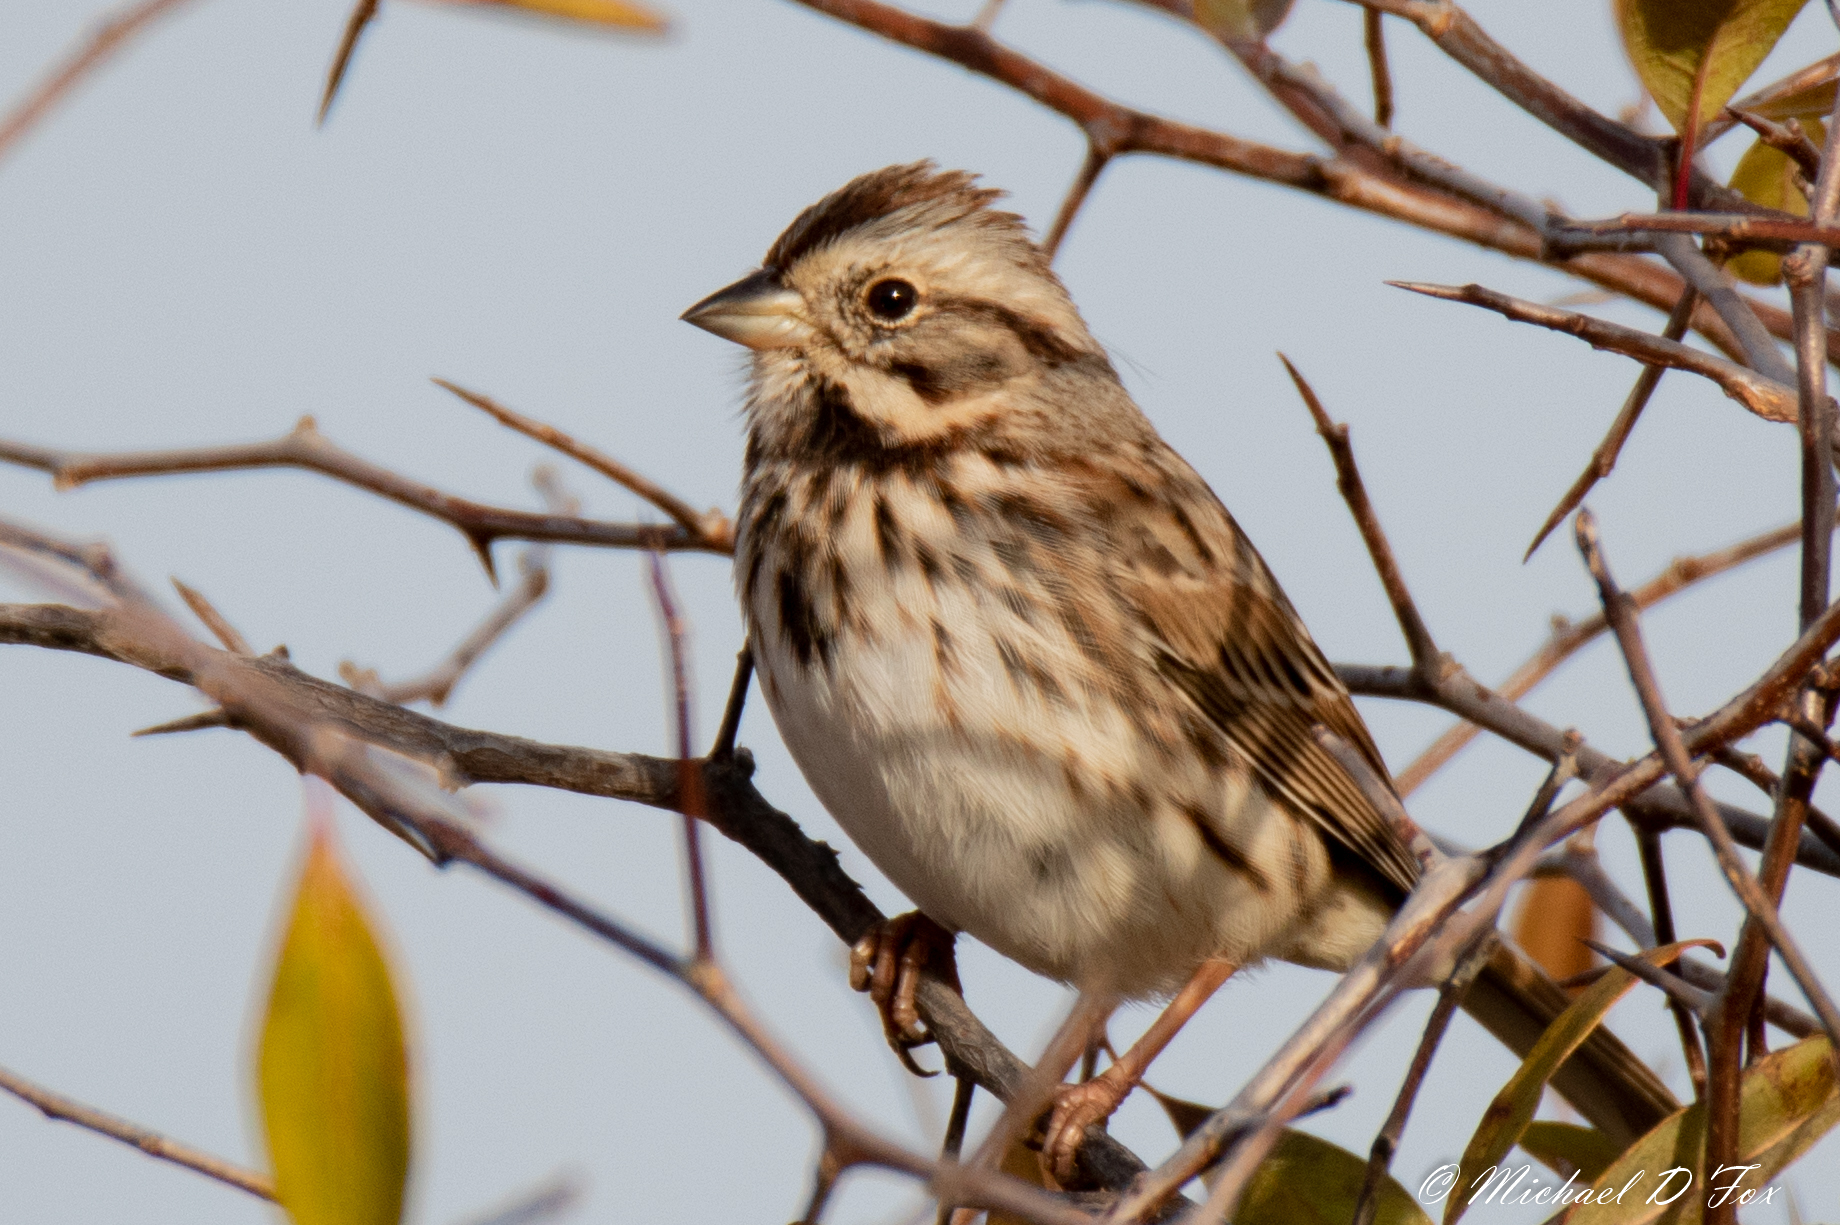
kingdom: Animalia
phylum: Chordata
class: Aves
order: Passeriformes
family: Passerellidae
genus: Melospiza
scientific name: Melospiza melodia
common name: Song sparrow
